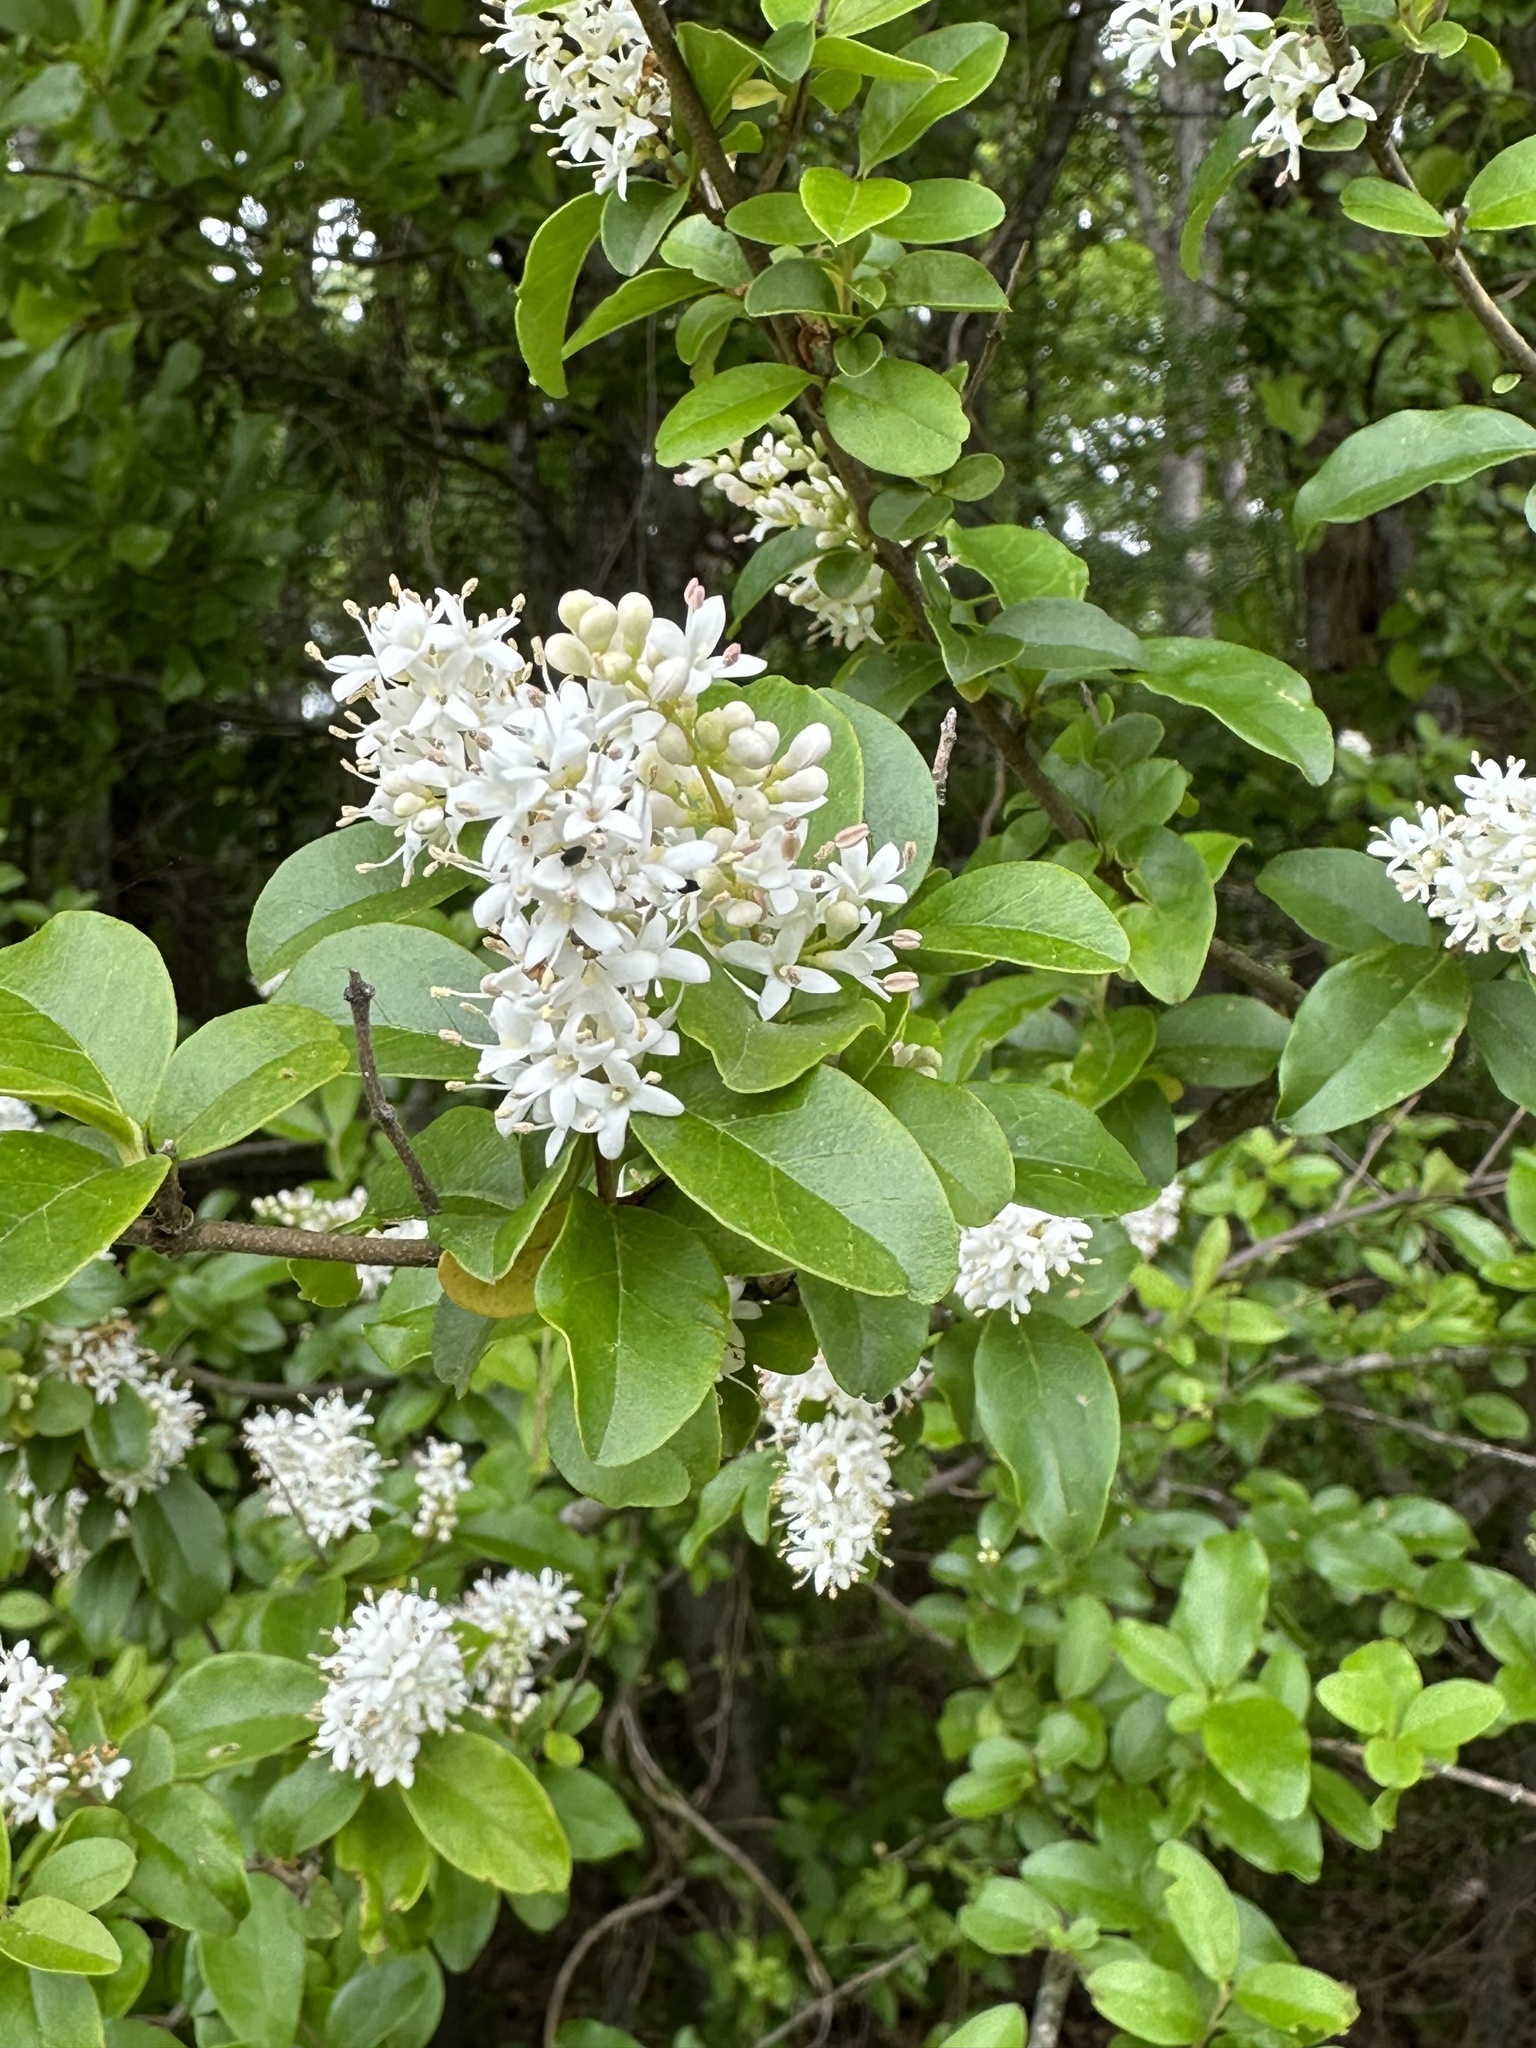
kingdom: Plantae
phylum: Tracheophyta
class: Magnoliopsida
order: Lamiales
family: Oleaceae
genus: Ligustrum
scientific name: Ligustrum sinense
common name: Chinese privet
